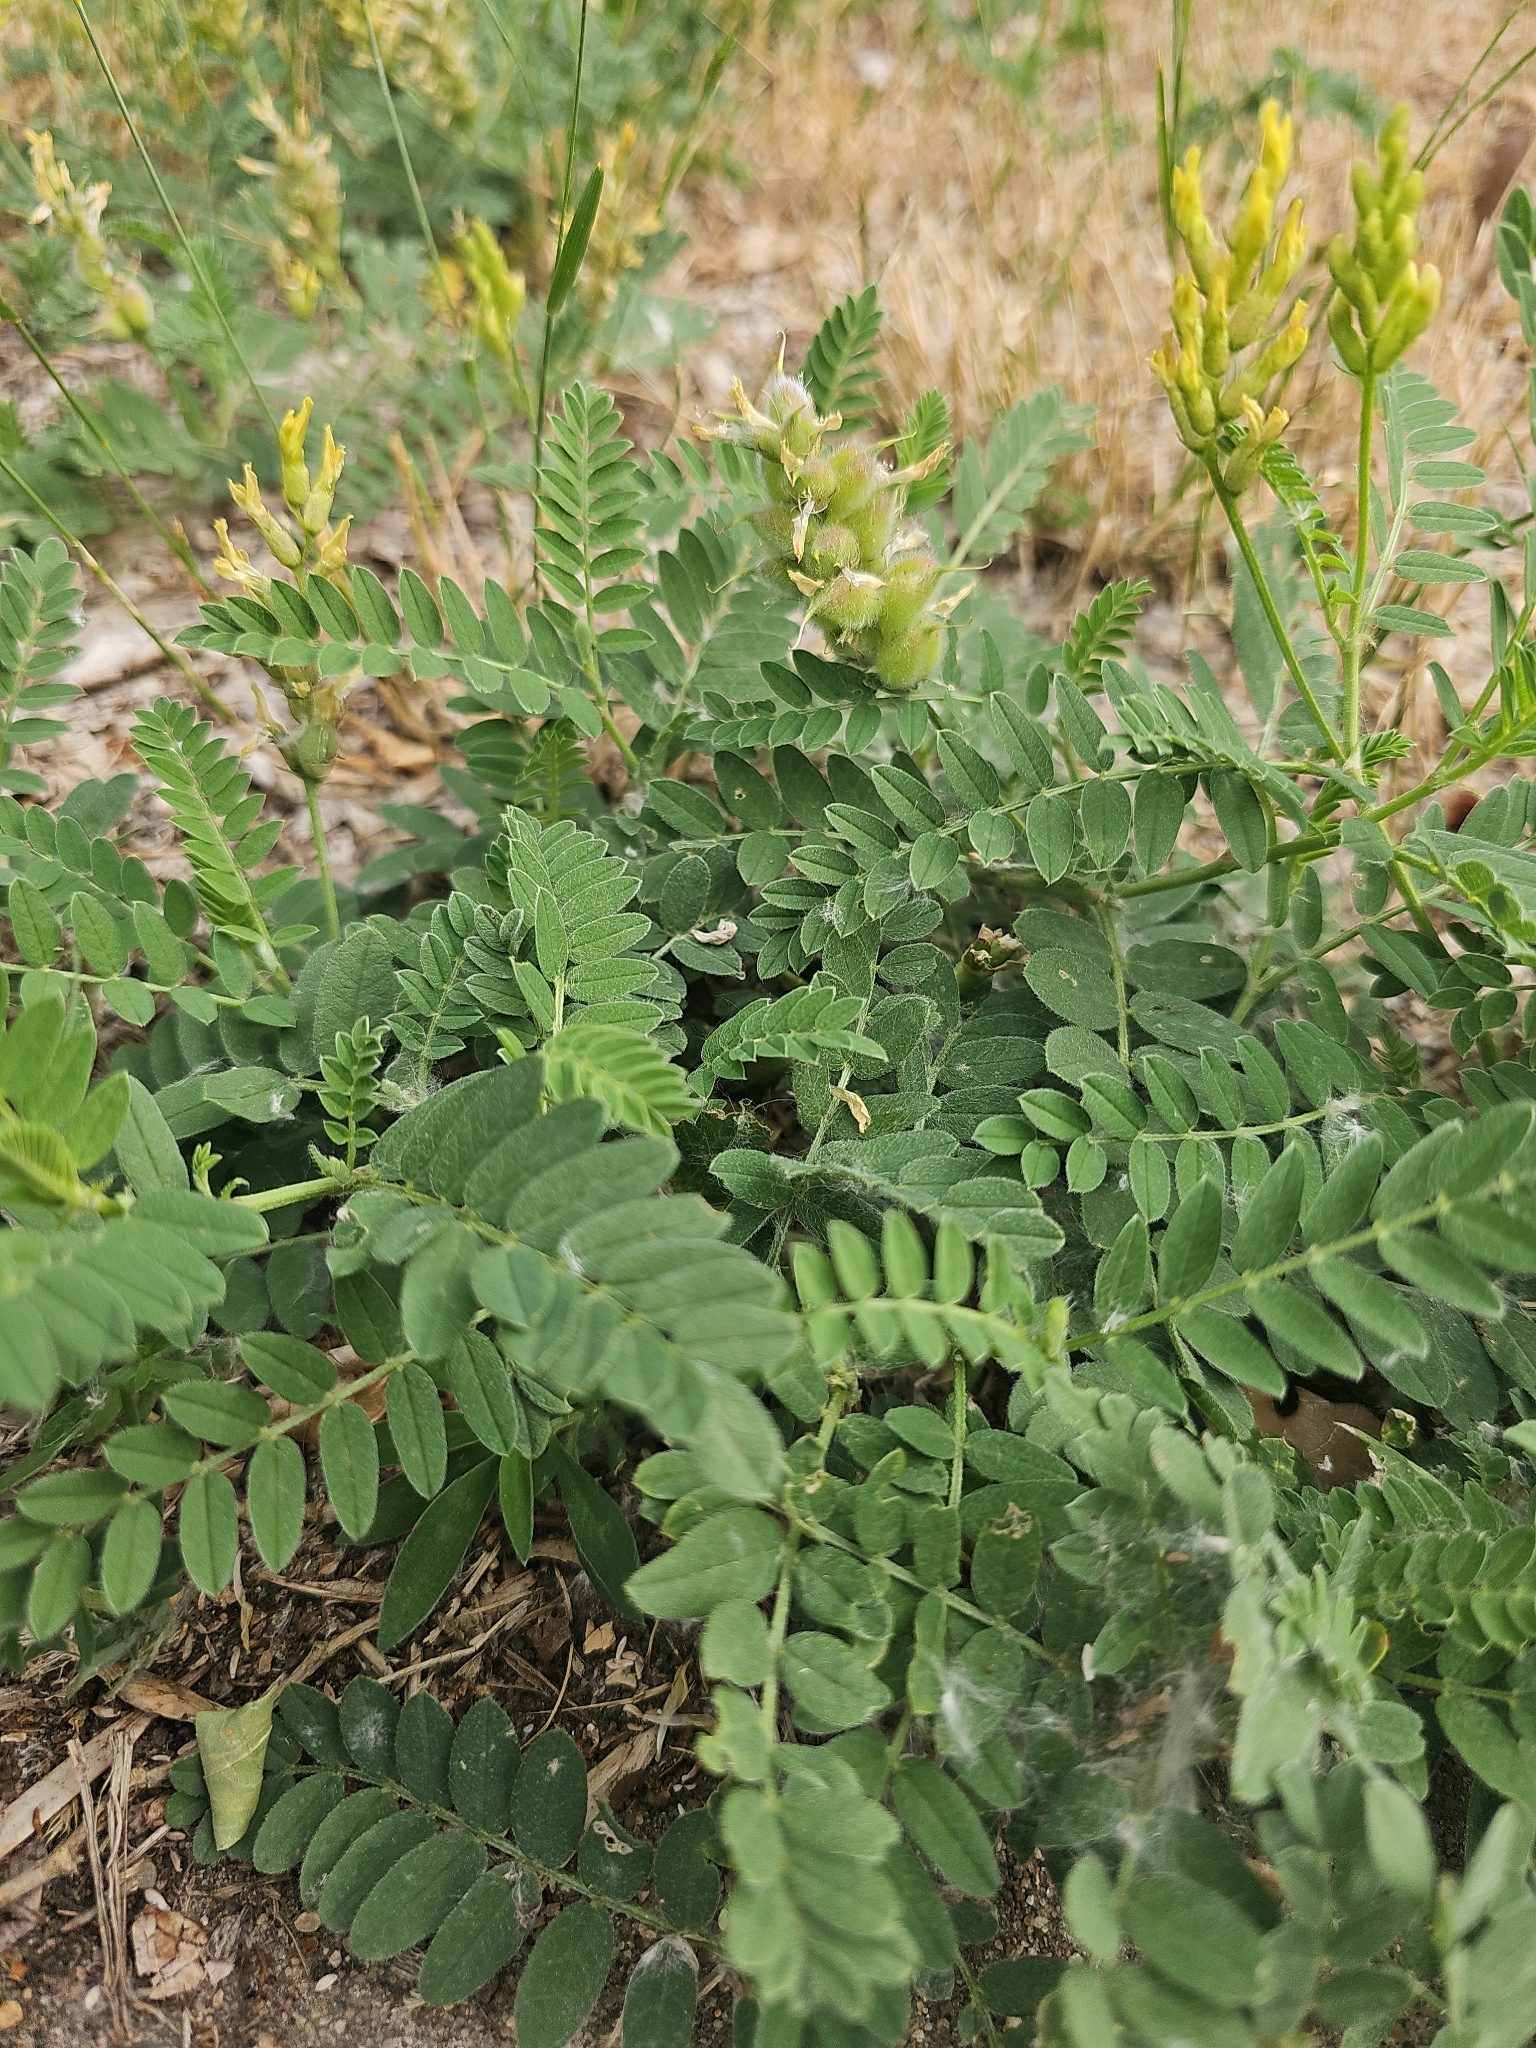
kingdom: Plantae
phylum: Tracheophyta
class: Magnoliopsida
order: Fabales
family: Fabaceae
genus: Astragalus
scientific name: Astragalus cicer
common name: Chick-pea milk-vetch
